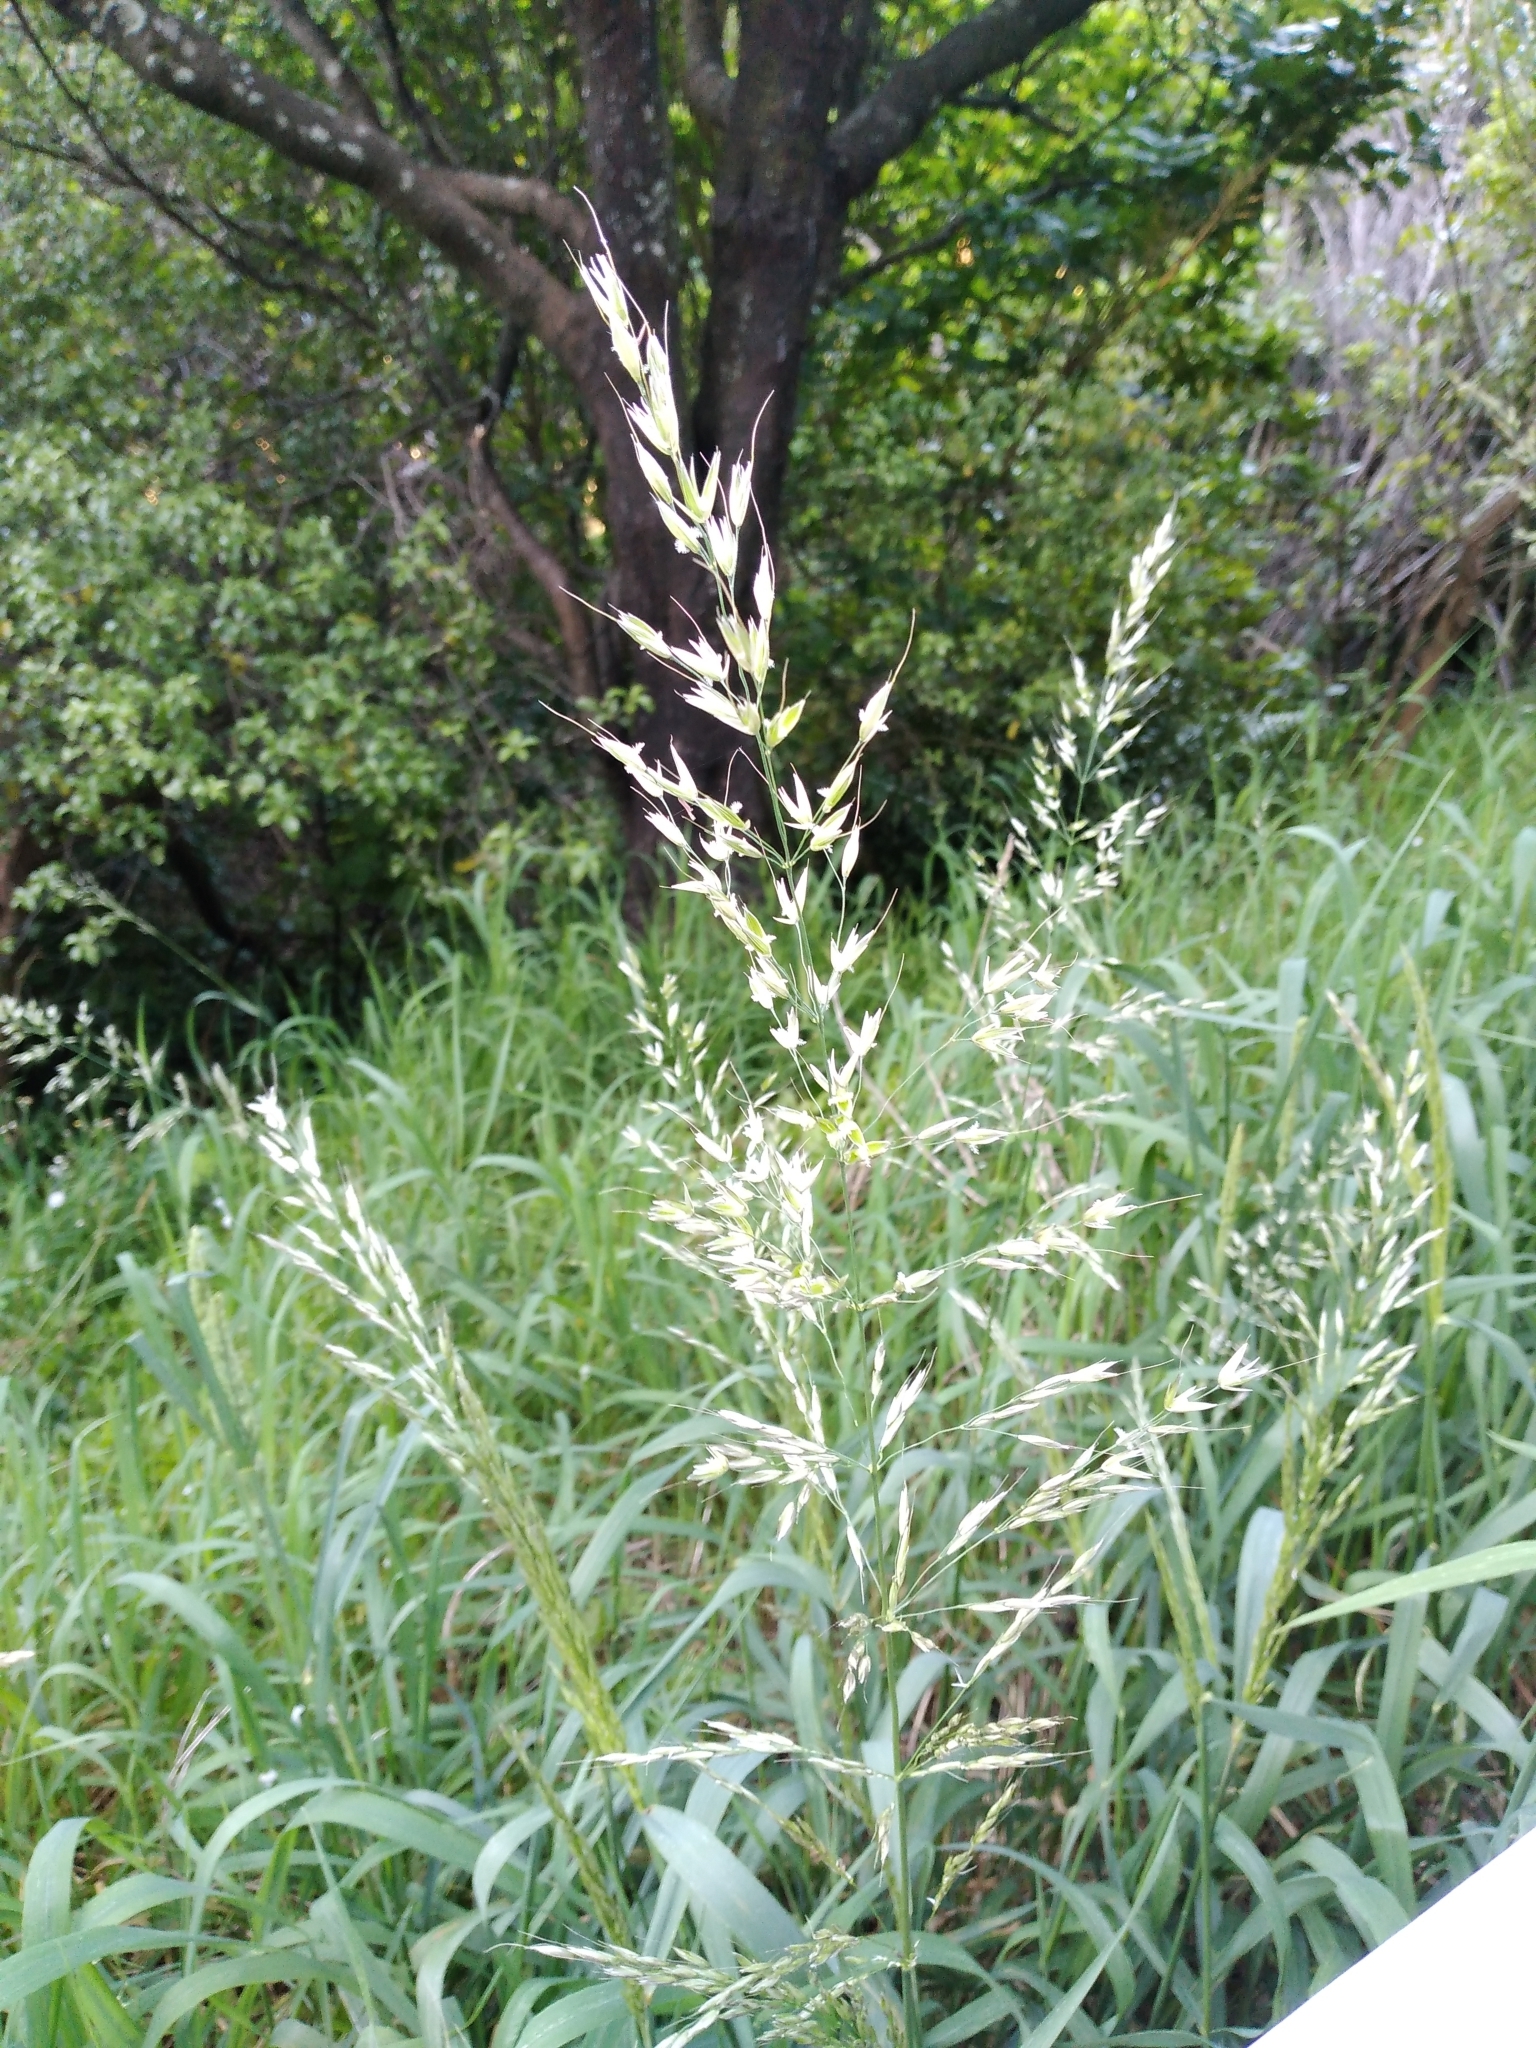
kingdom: Plantae
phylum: Tracheophyta
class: Liliopsida
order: Poales
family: Poaceae
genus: Arrhenatherum
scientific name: Arrhenatherum elatius
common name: Tall oatgrass
